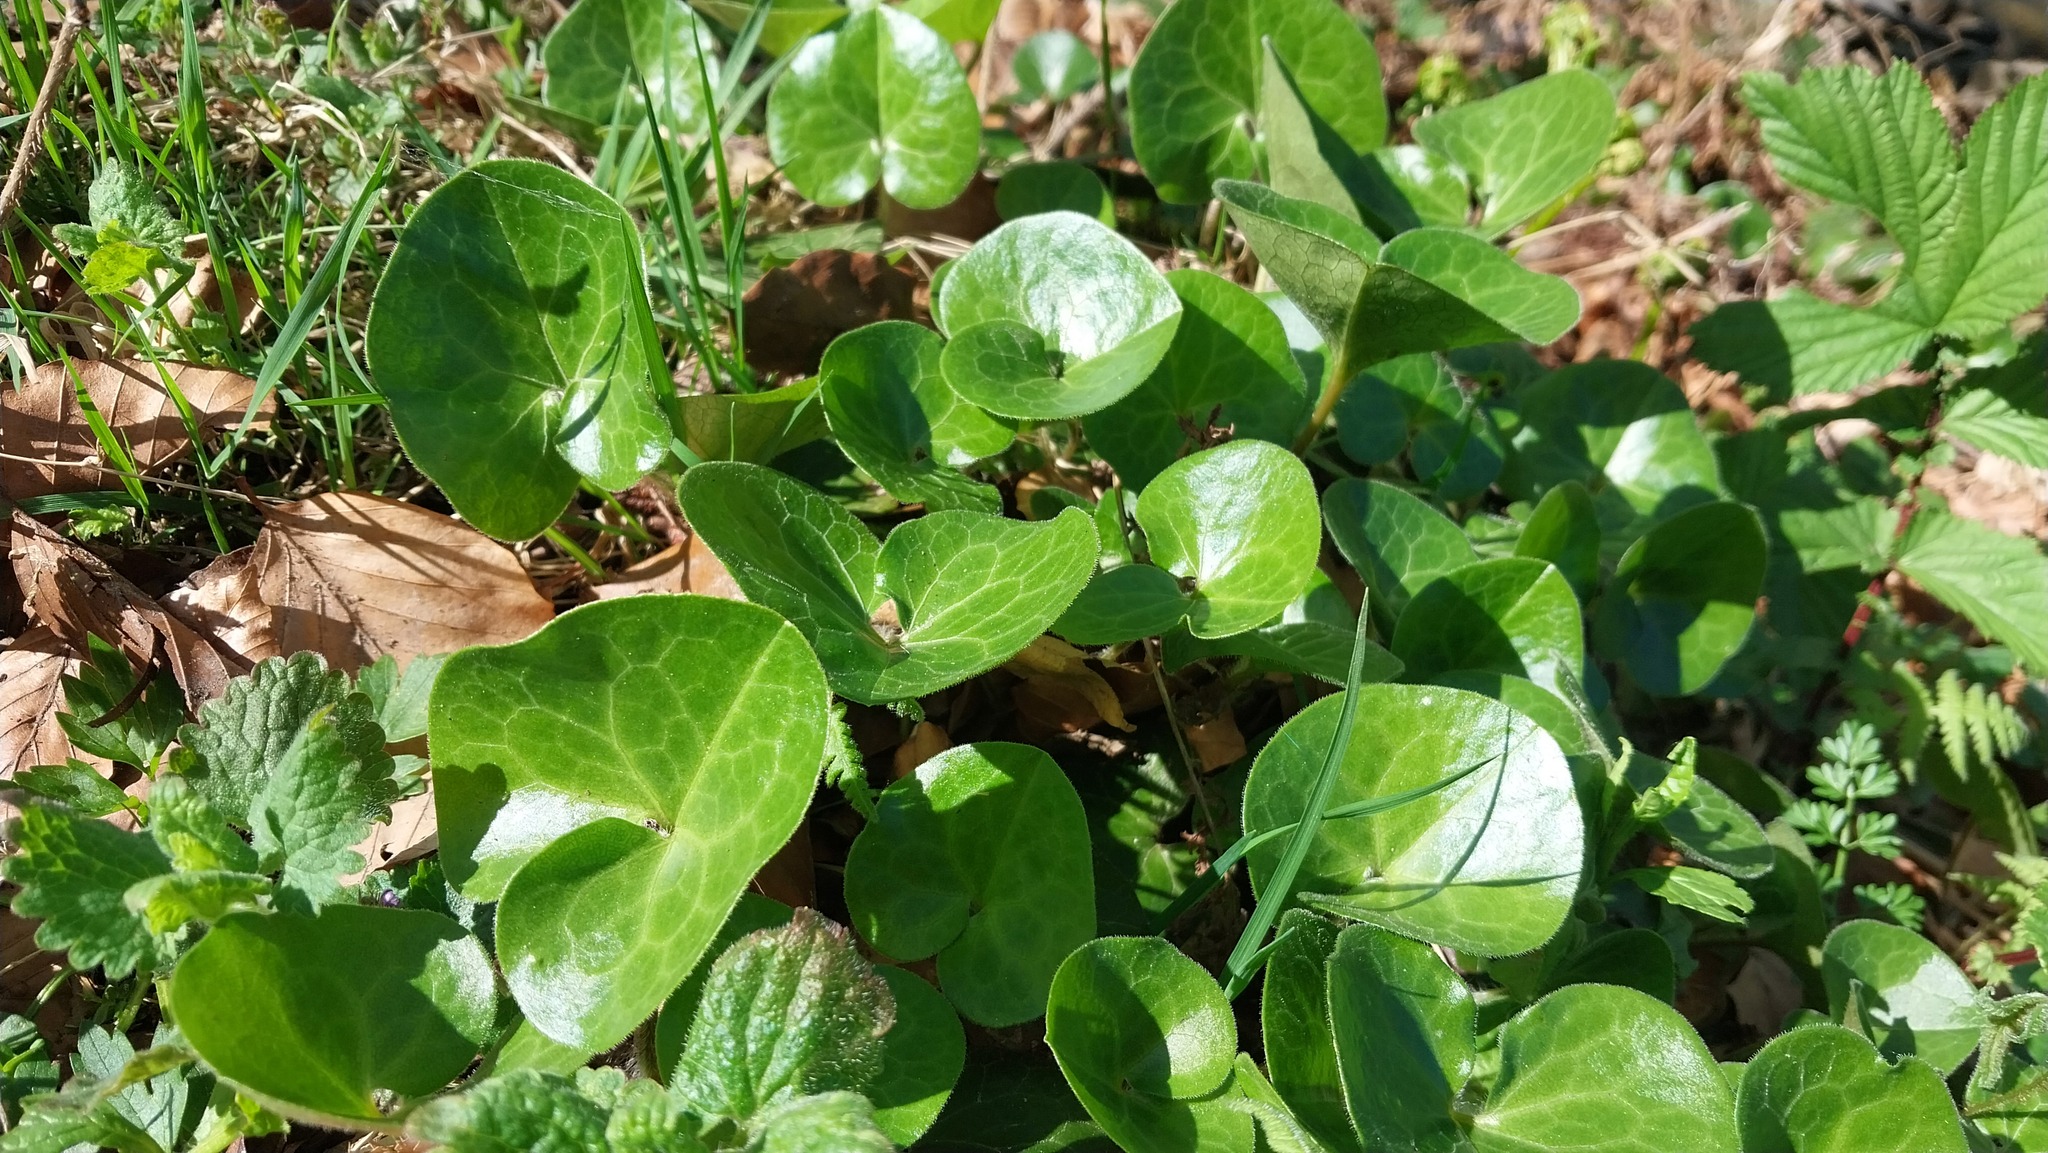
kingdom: Plantae
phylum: Tracheophyta
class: Magnoliopsida
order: Piperales
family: Aristolochiaceae
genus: Asarum
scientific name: Asarum europaeum
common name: Asarabacca
